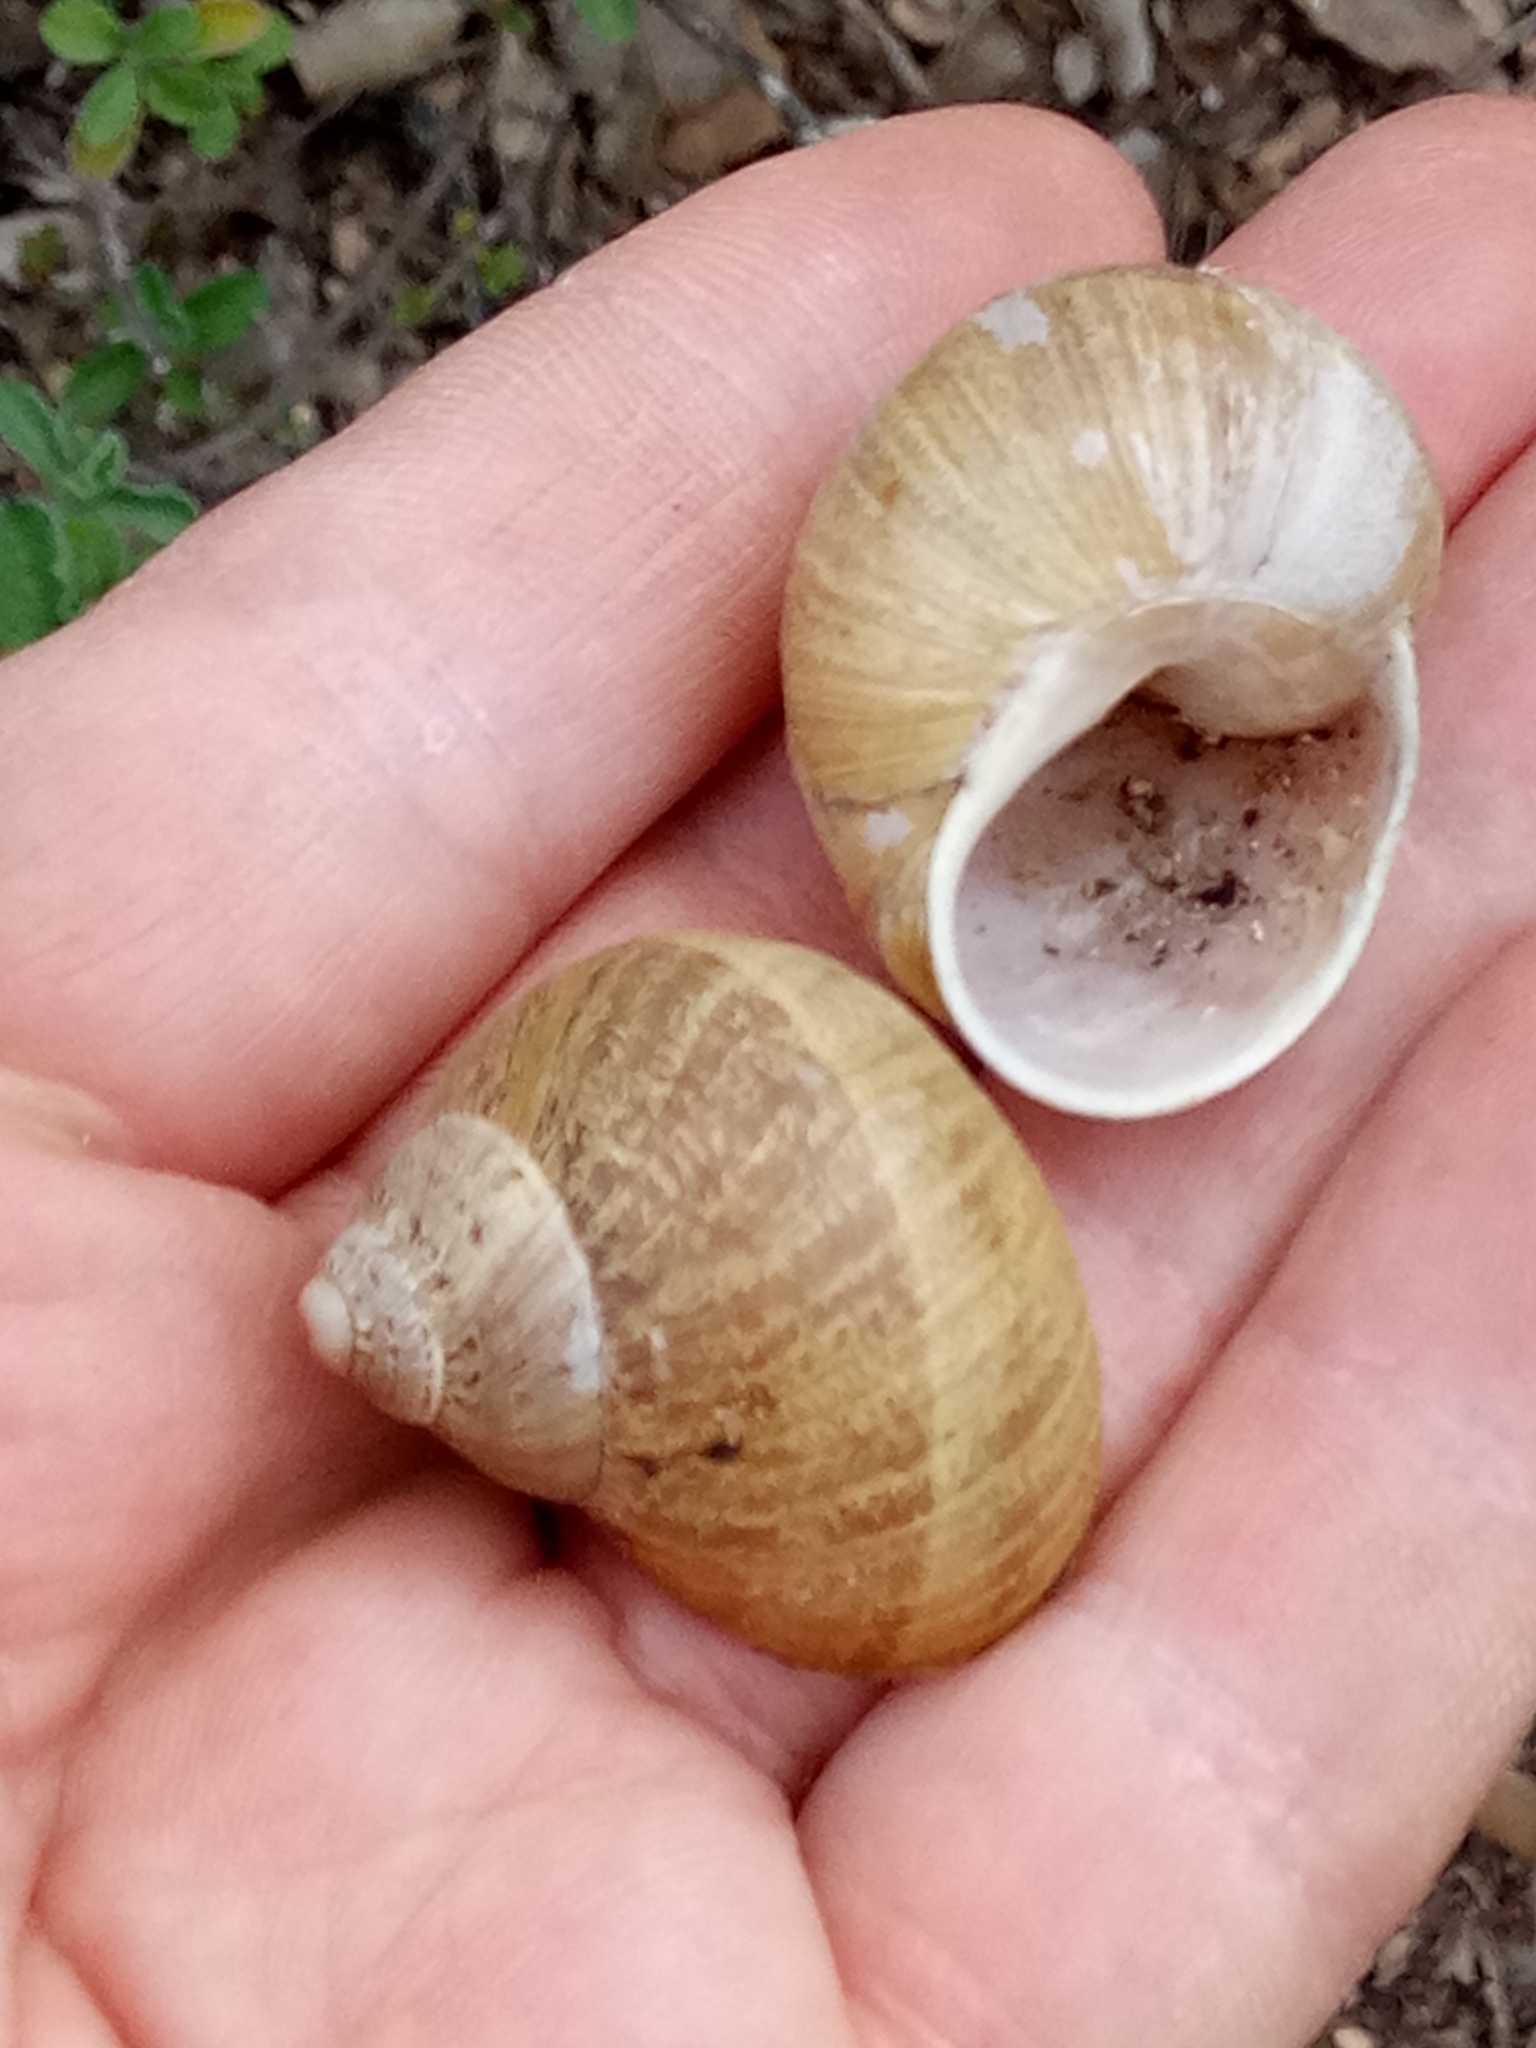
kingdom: Animalia
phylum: Mollusca
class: Gastropoda
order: Stylommatophora
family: Helicidae
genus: Cornu
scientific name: Cornu aspersum
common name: Brown garden snail
